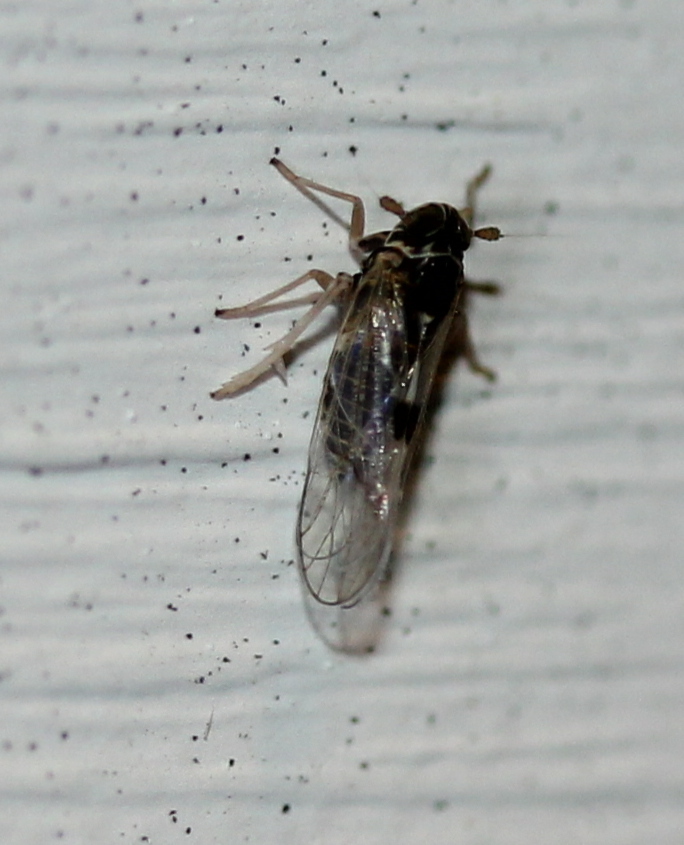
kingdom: Animalia
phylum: Arthropoda
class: Insecta
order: Hemiptera
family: Delphacidae
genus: Chionomus
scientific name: Chionomus
